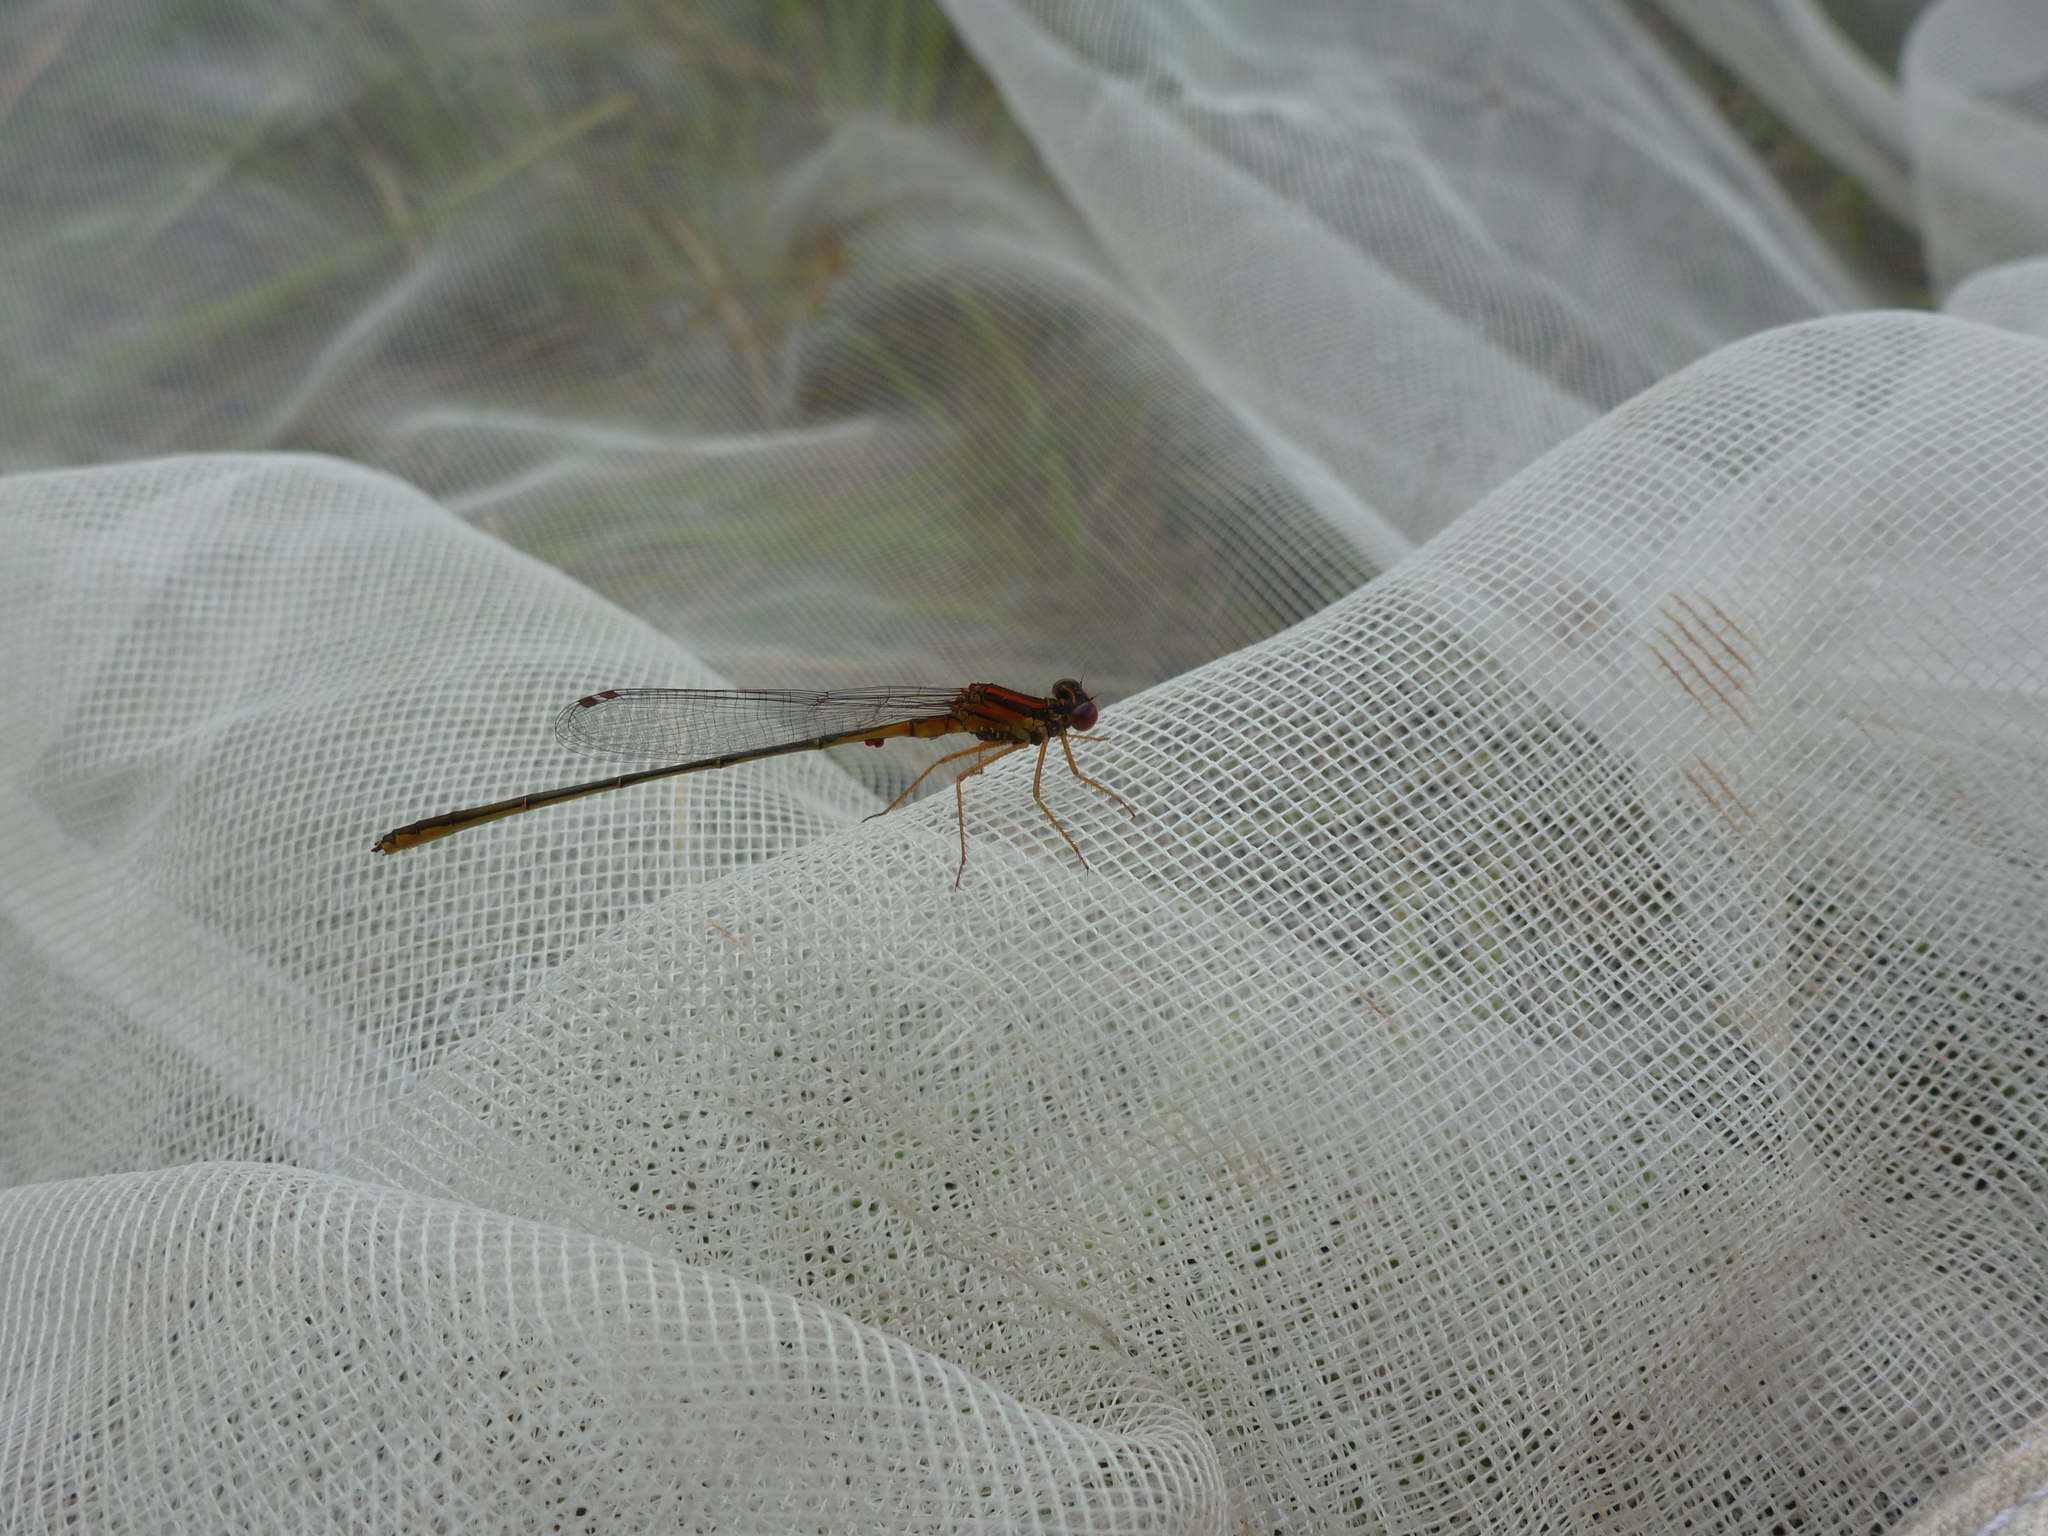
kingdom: Animalia
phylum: Arthropoda
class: Insecta
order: Odonata
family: Coenagrionidae
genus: Enallagma
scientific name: Enallagma pictum
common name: Scarlet bluet
